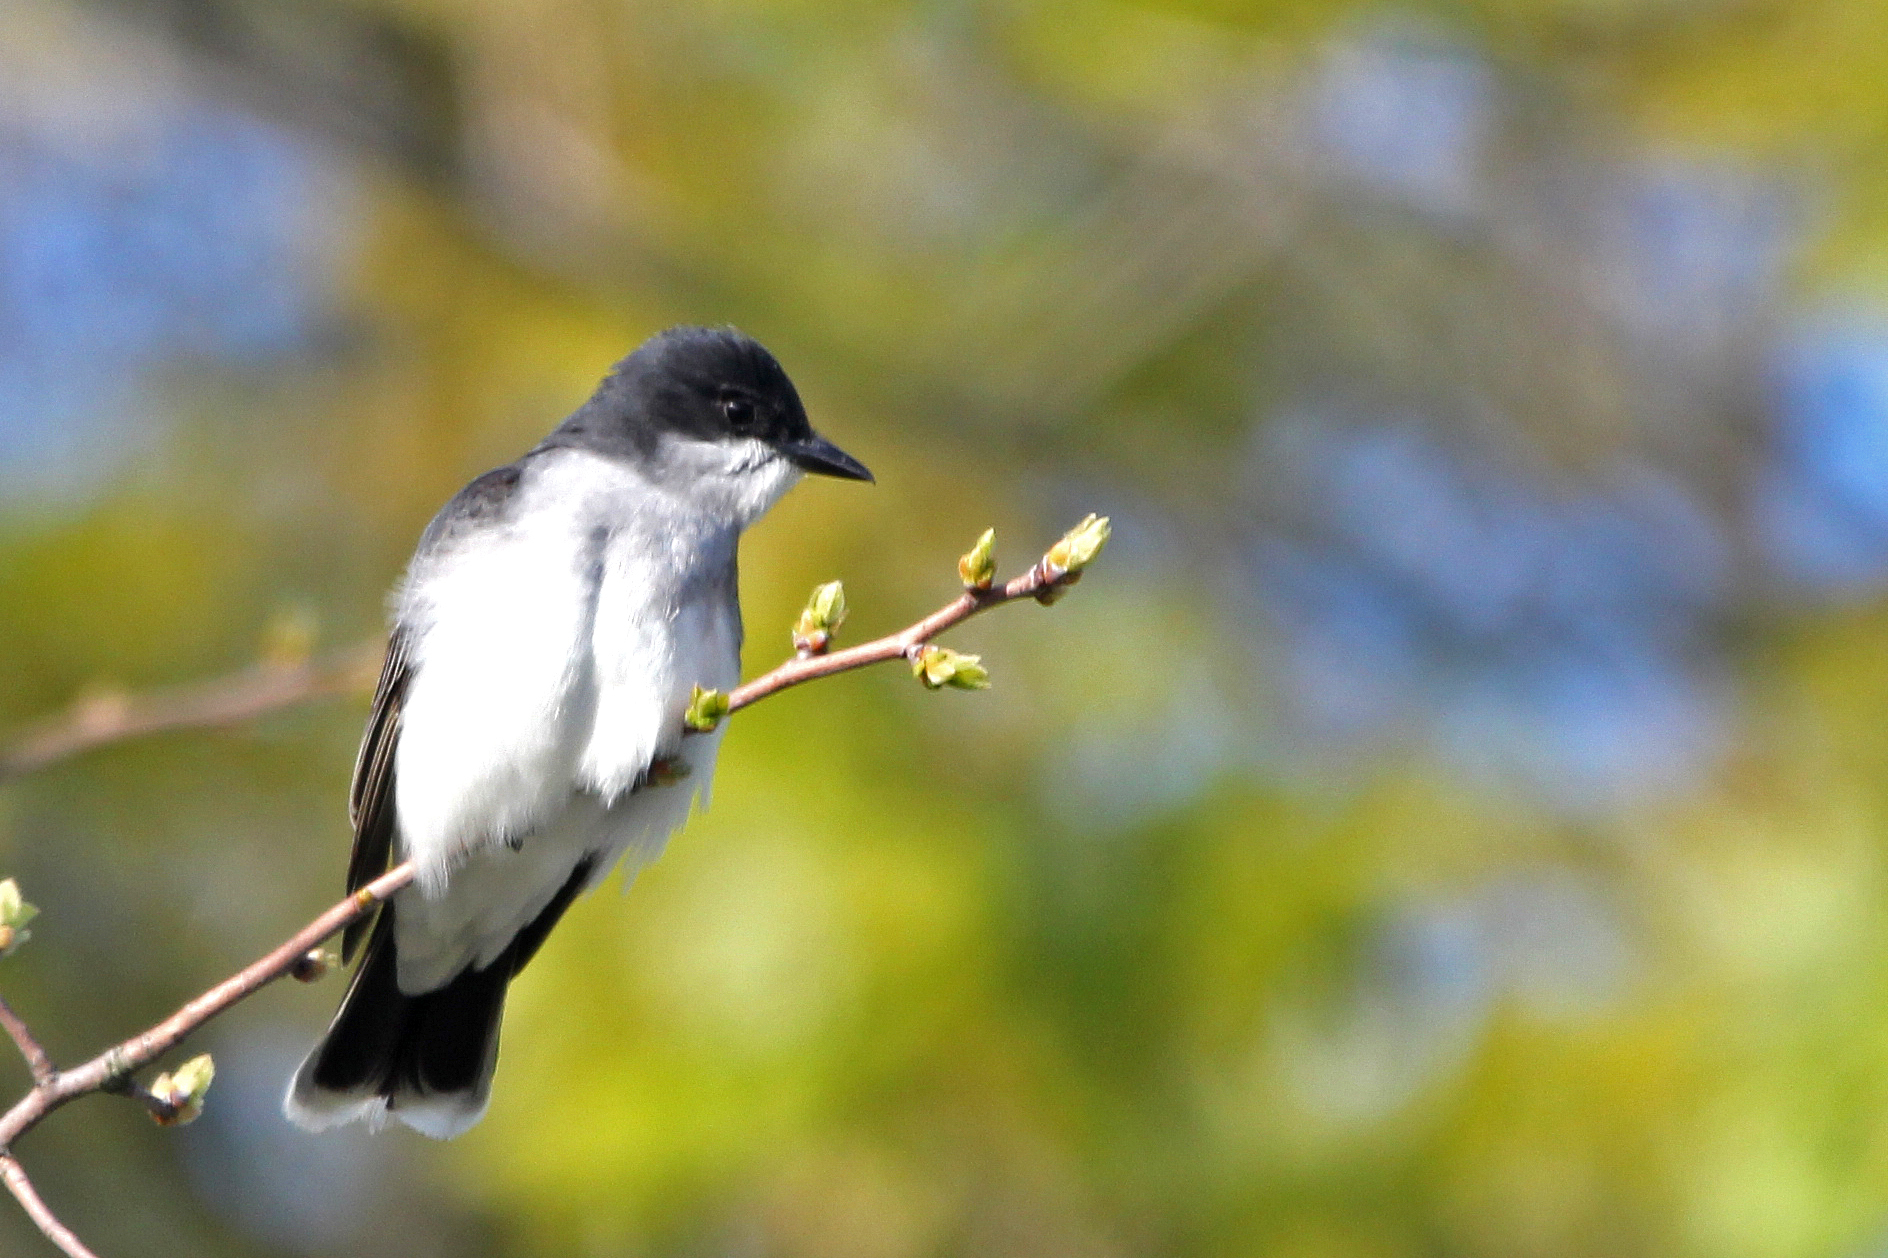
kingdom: Animalia
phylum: Chordata
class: Aves
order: Passeriformes
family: Tyrannidae
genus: Tyrannus
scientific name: Tyrannus tyrannus
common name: Eastern kingbird
